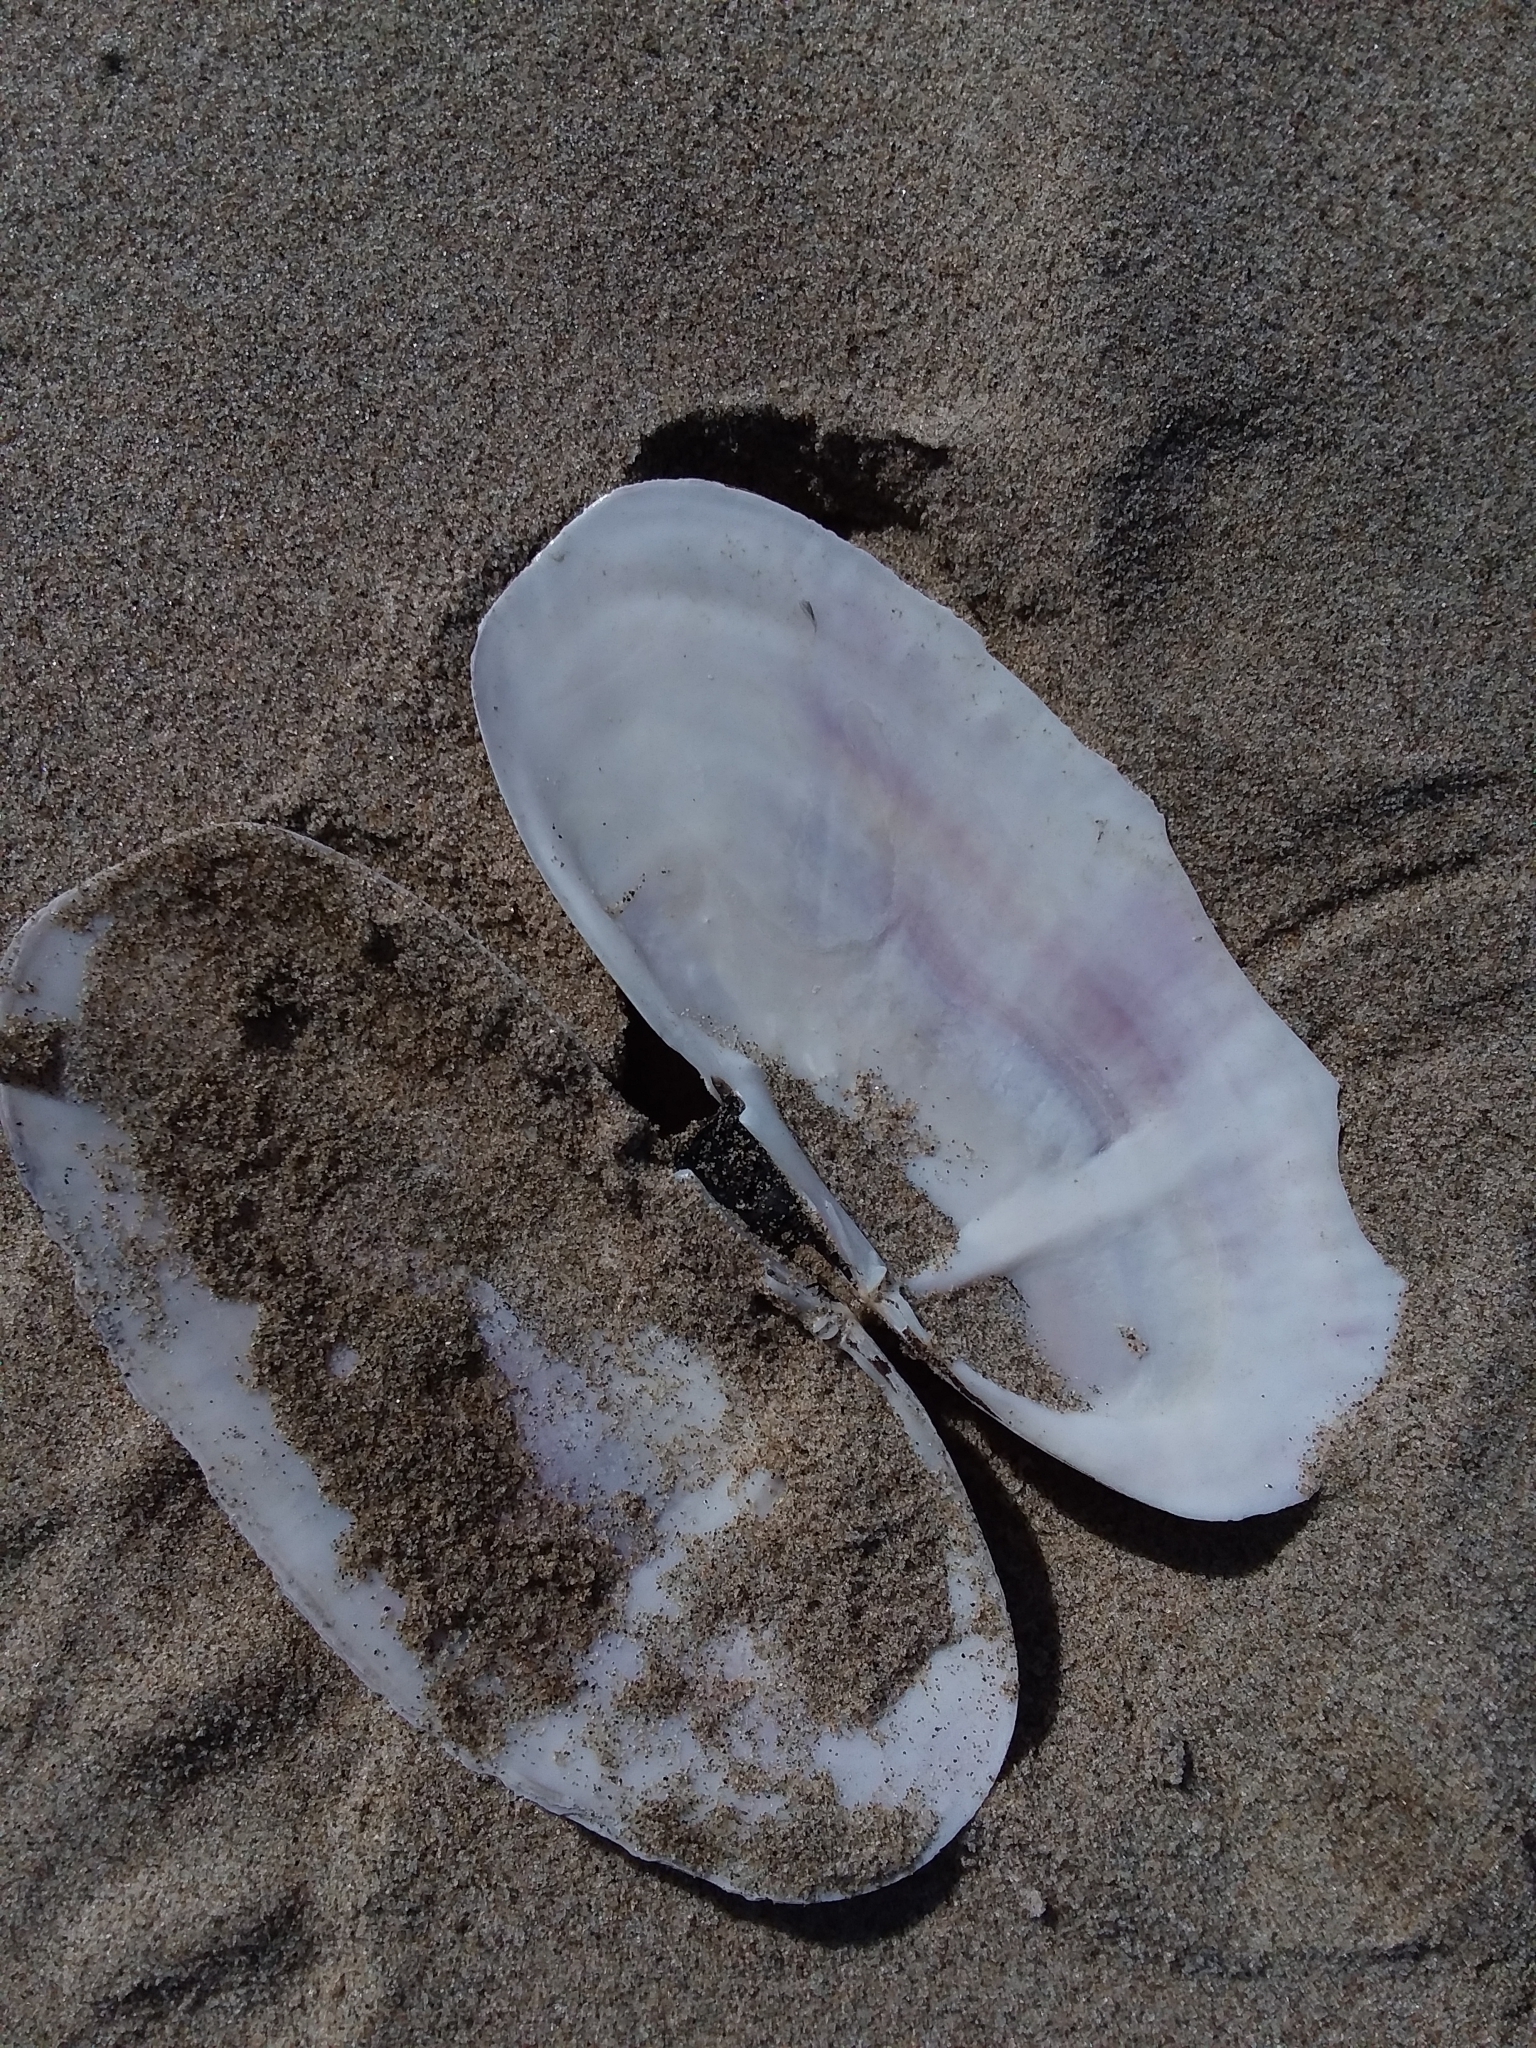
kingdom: Animalia
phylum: Mollusca
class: Bivalvia
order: Adapedonta
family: Pharidae
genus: Siliqua
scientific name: Siliqua patula
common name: Pacific razor clam
